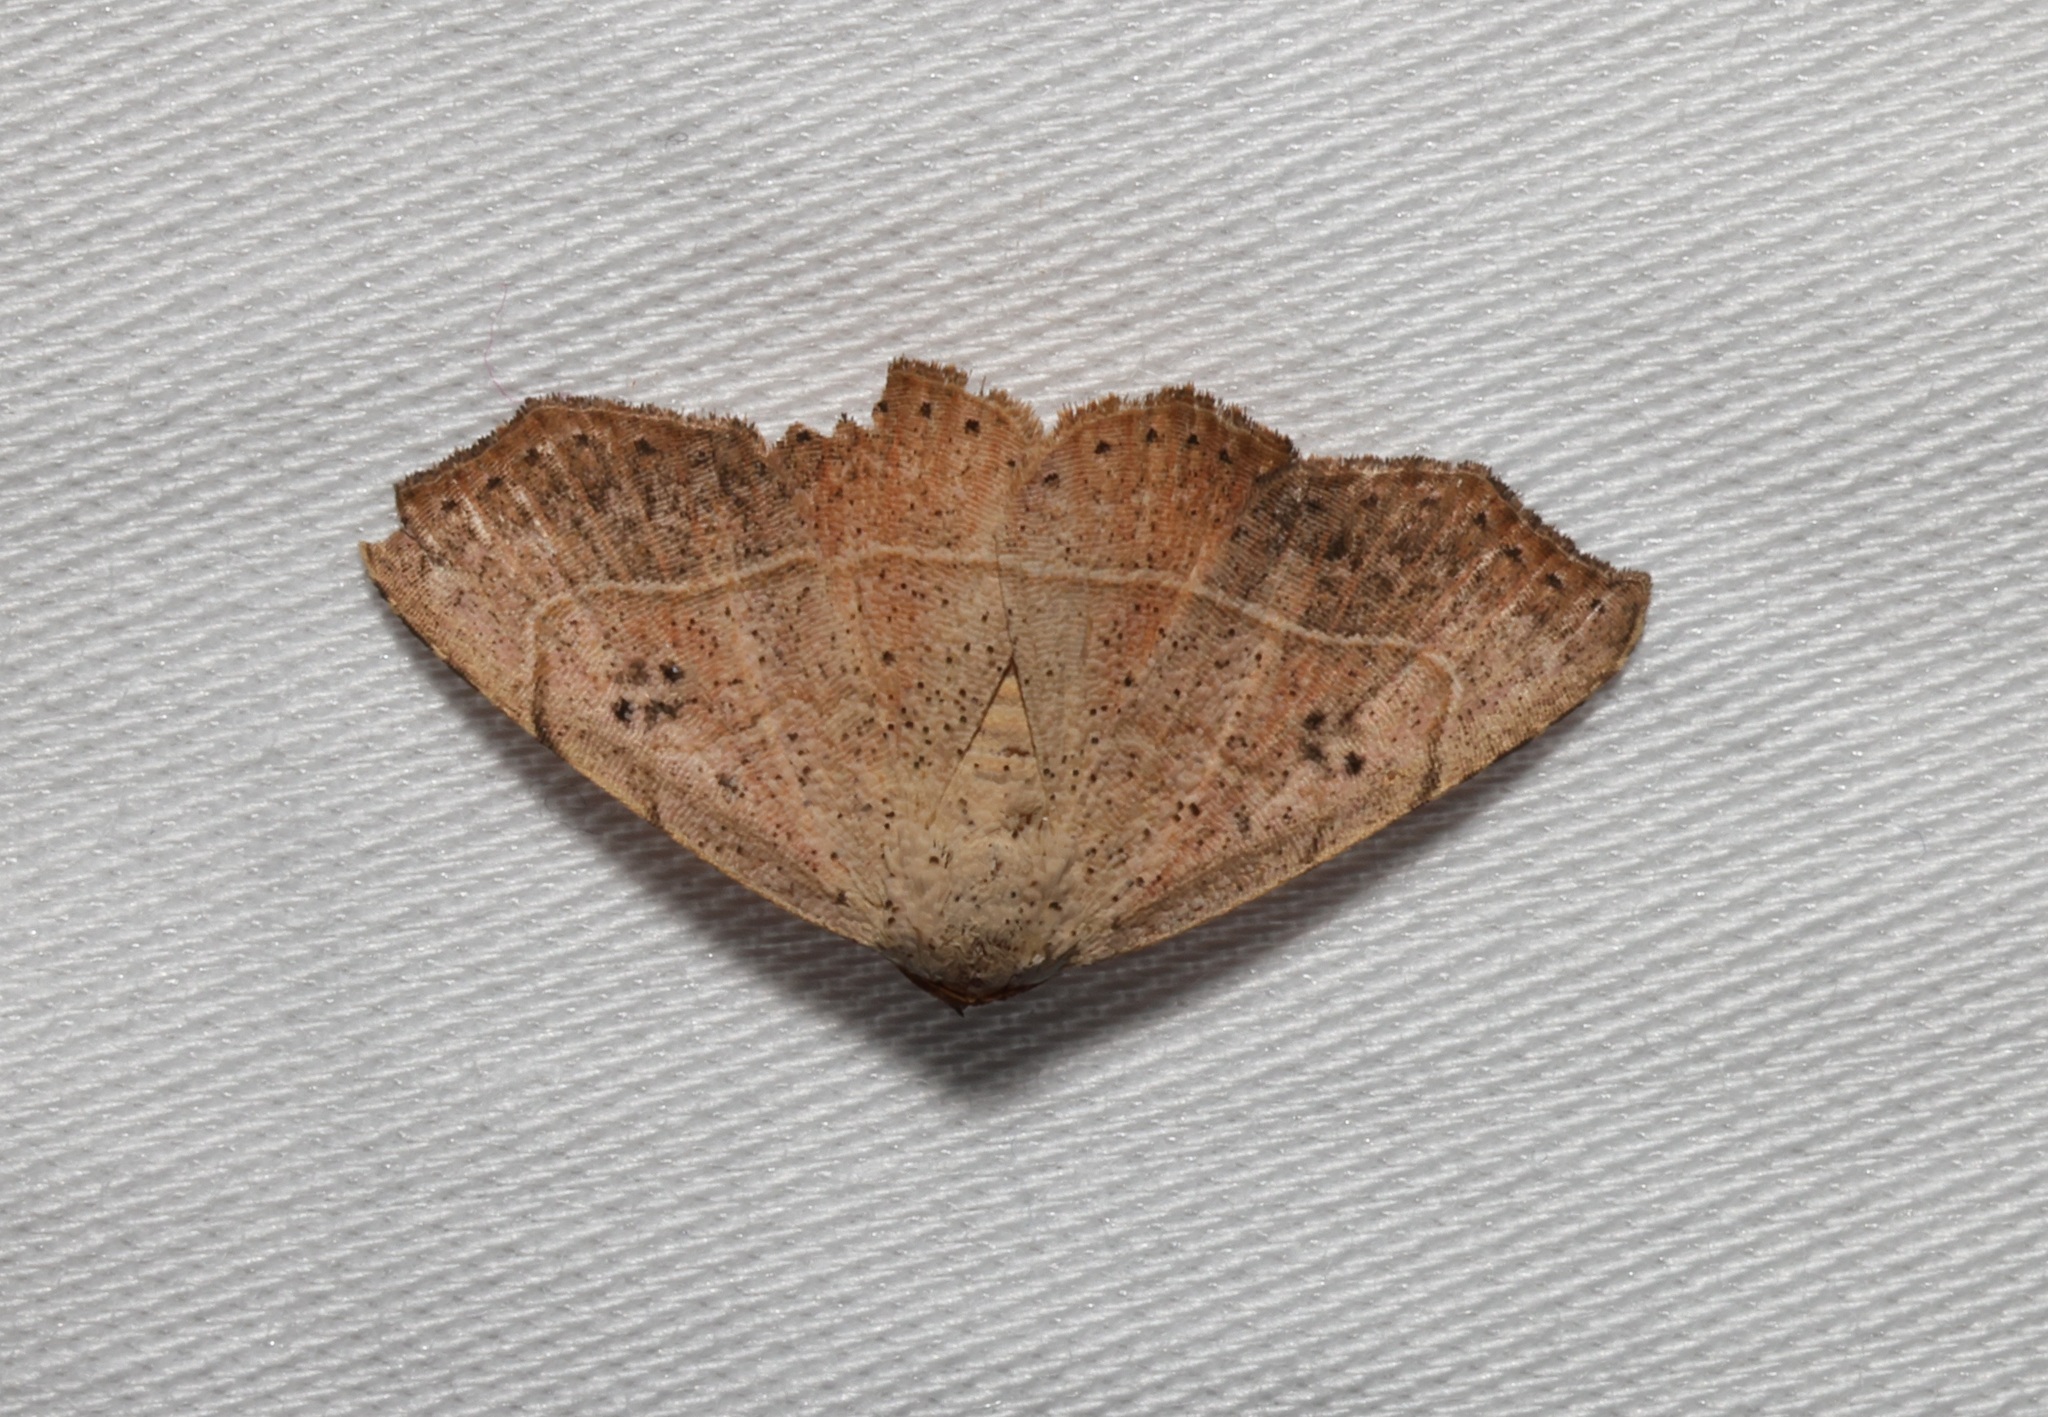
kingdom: Animalia
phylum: Arthropoda
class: Insecta
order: Lepidoptera
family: Erebidae
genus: Laspeyria
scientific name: Laspeyria ruficeps
